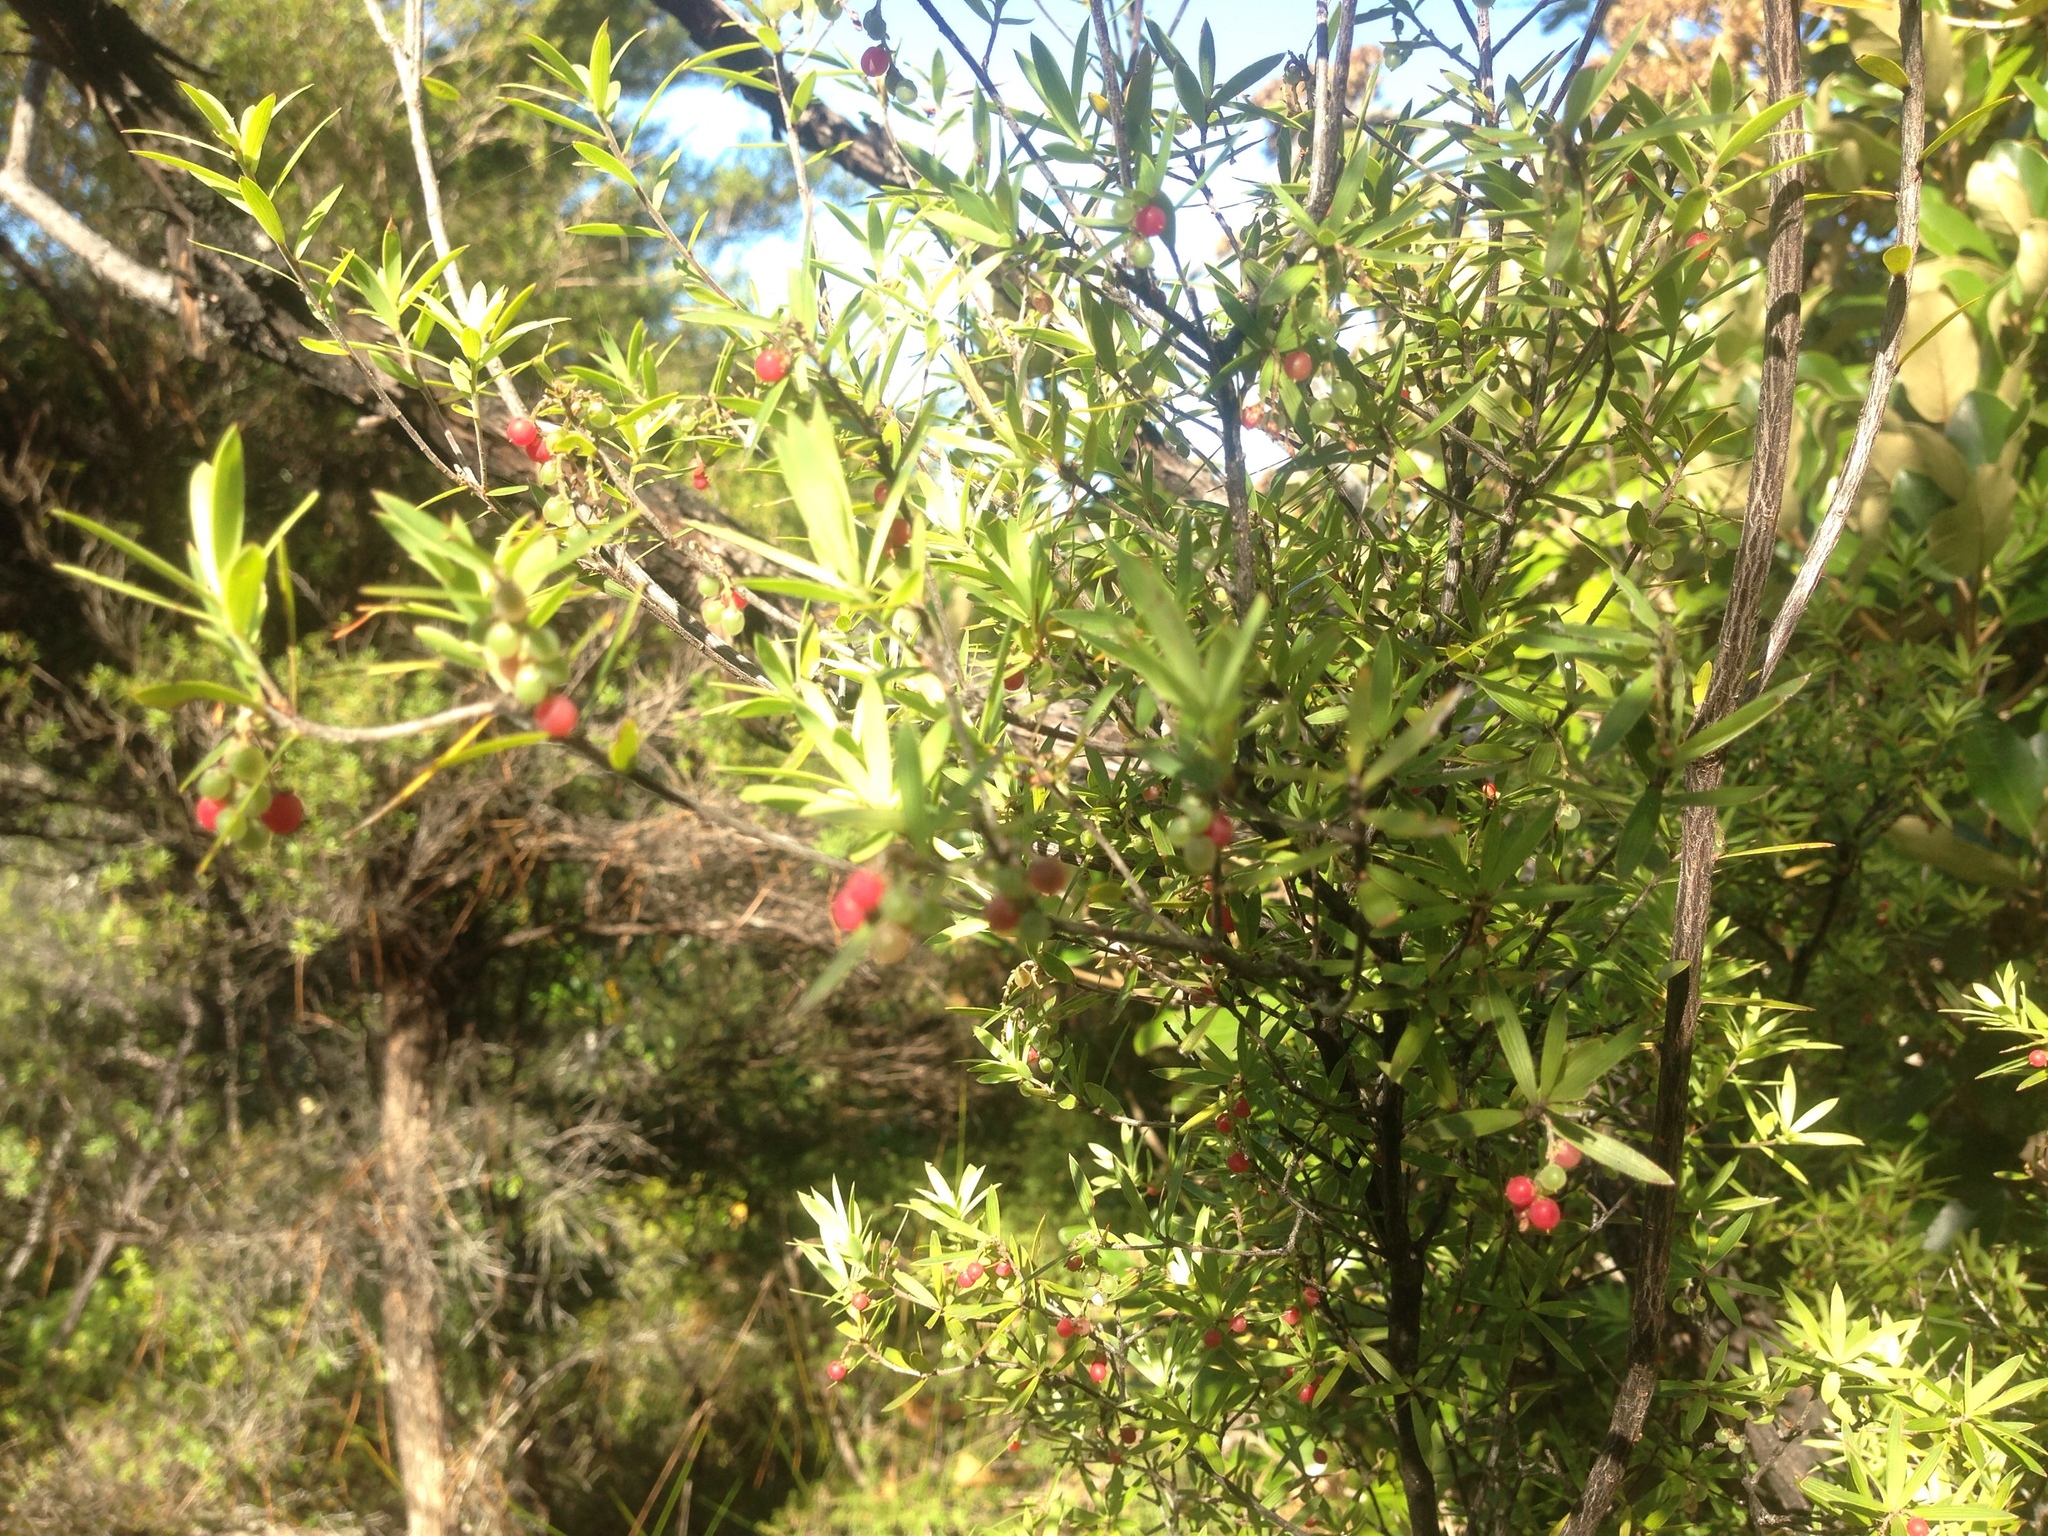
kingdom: Plantae
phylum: Tracheophyta
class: Magnoliopsida
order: Ericales
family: Ericaceae
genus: Leucopogon
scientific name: Leucopogon fasciculatus
